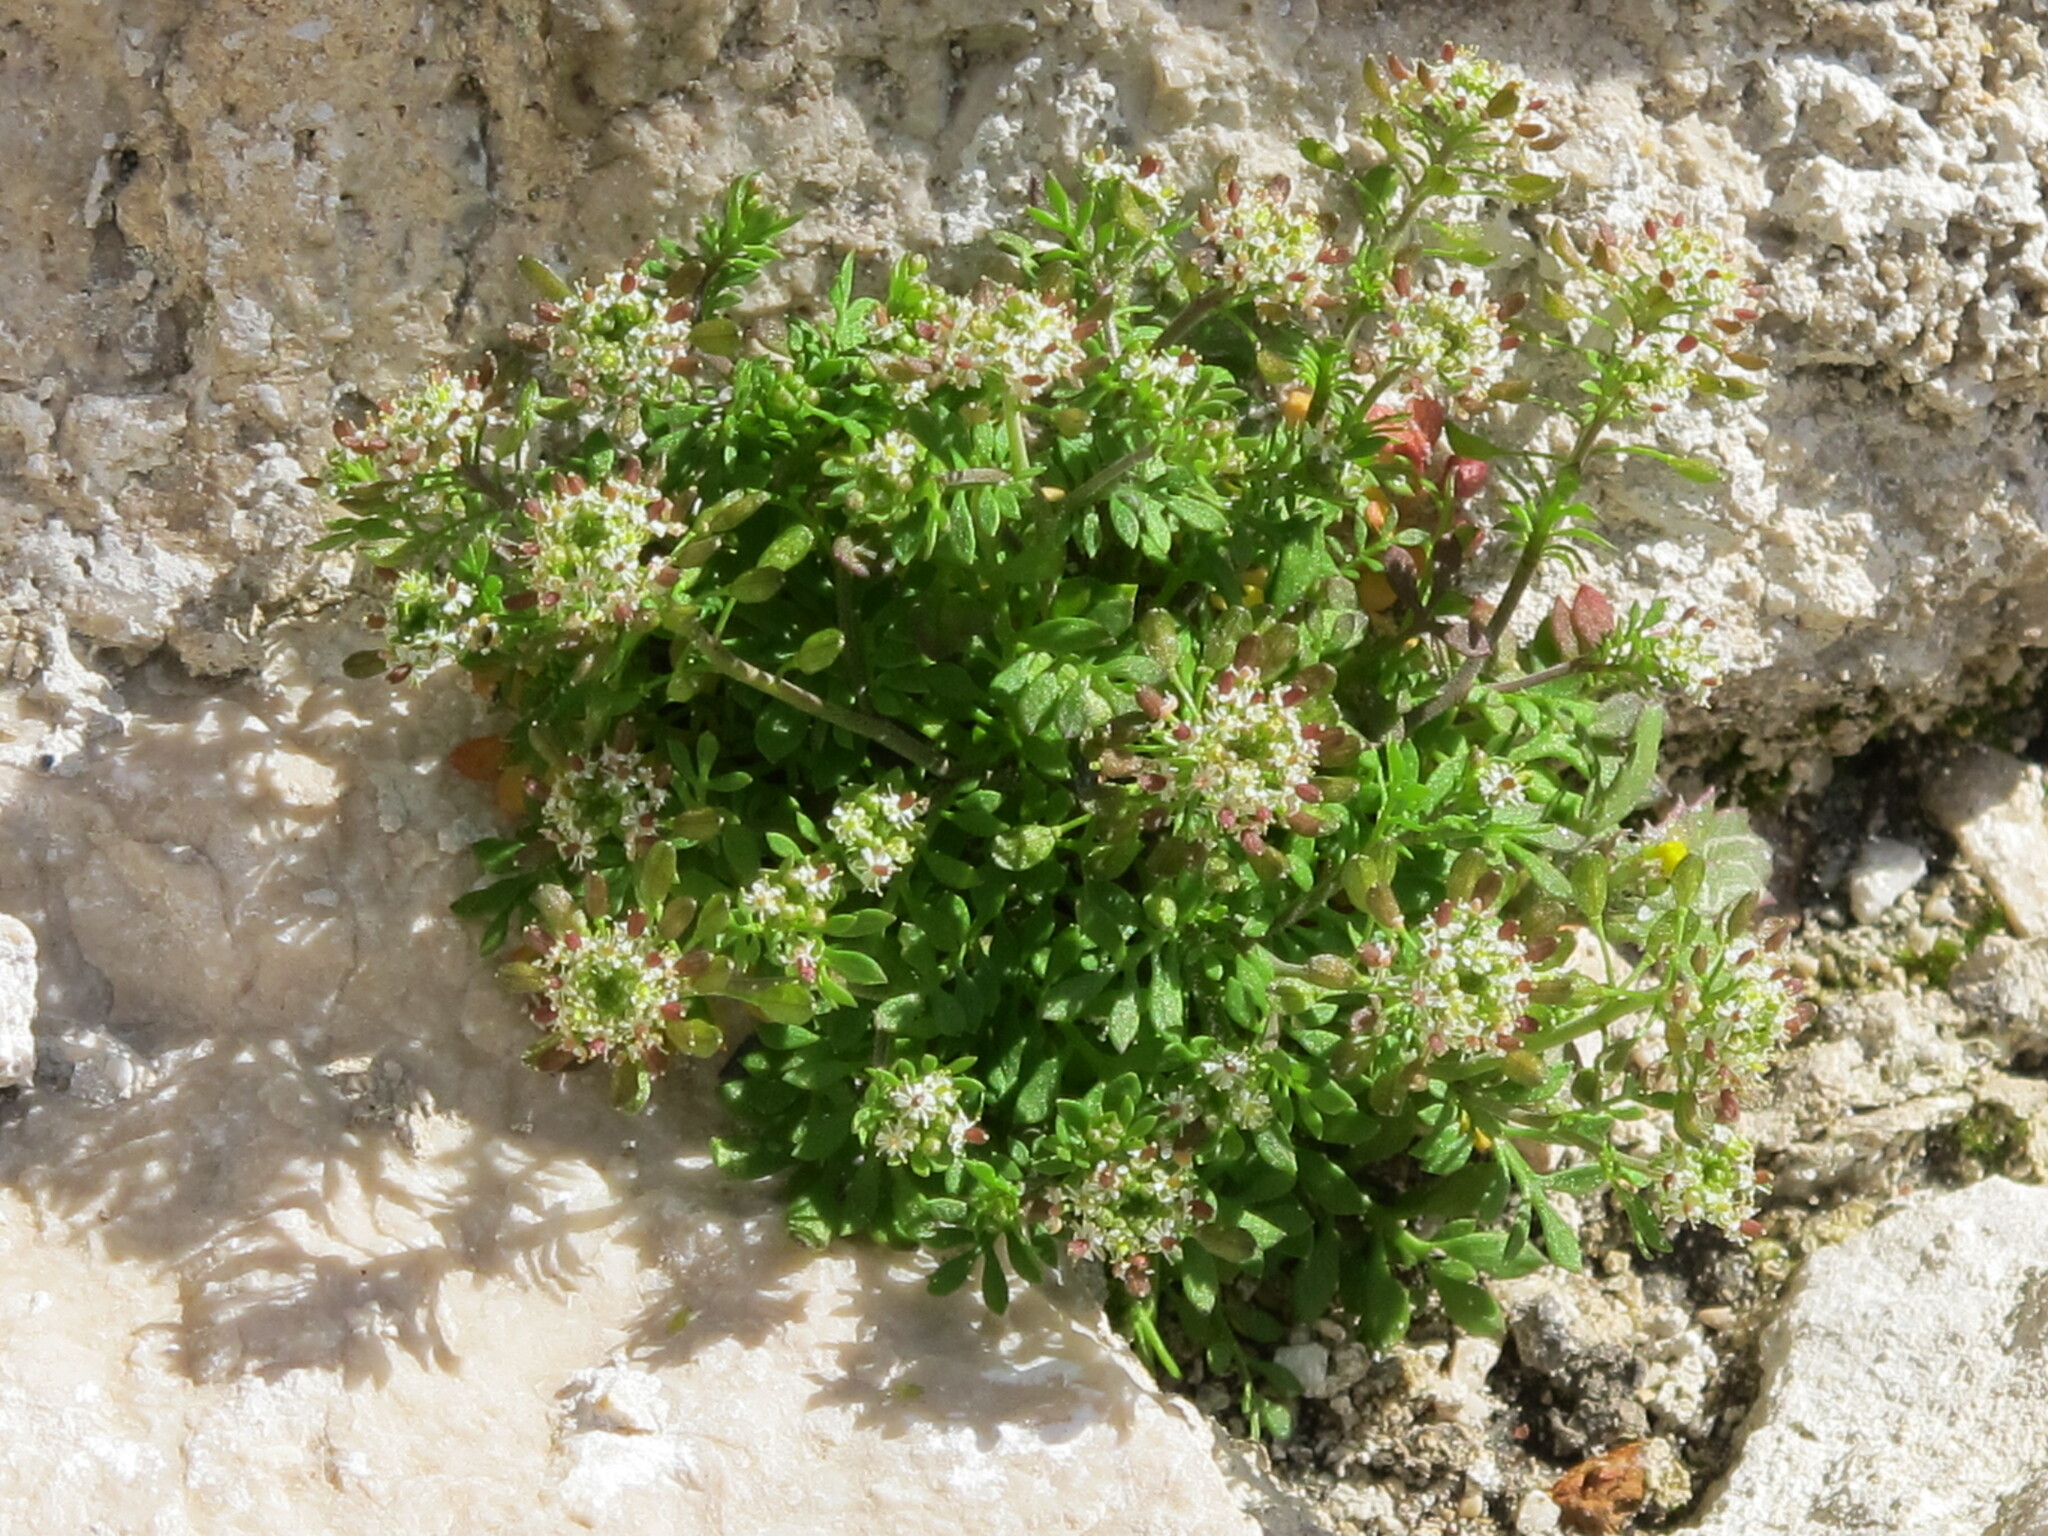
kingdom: Plantae
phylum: Tracheophyta
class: Magnoliopsida
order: Brassicales
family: Brassicaceae
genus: Hornungia
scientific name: Hornungia petraea
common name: Hutchinsia
